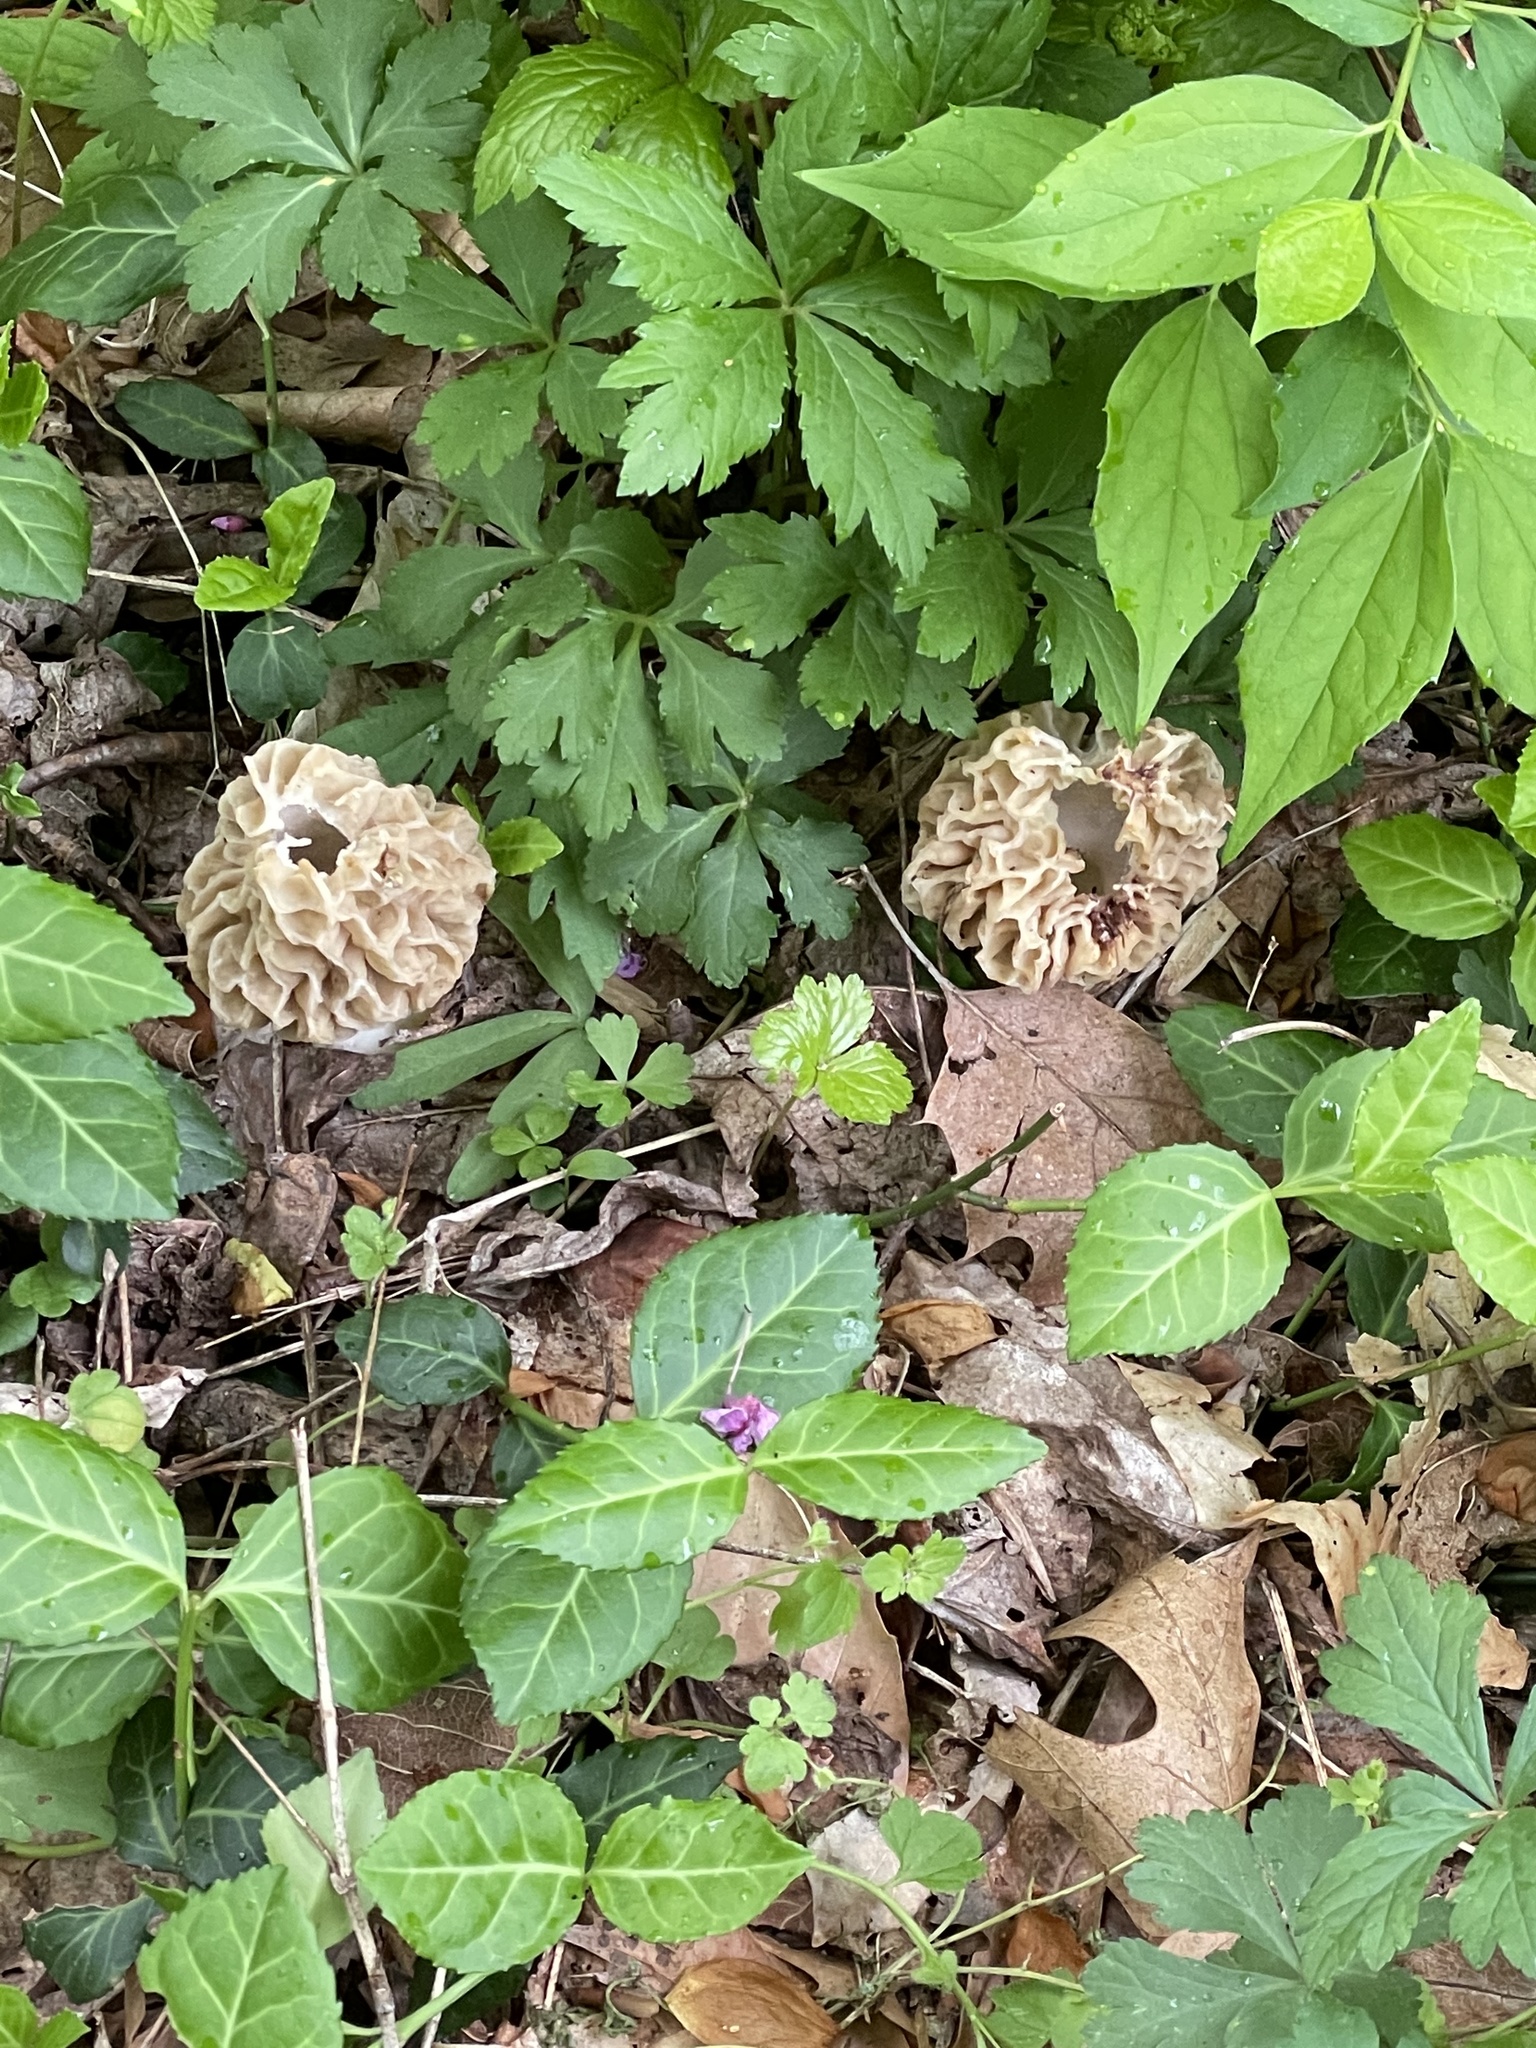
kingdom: Fungi
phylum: Ascomycota
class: Pezizomycetes
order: Pezizales
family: Morchellaceae
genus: Morchella
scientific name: Morchella americana
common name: White morel
